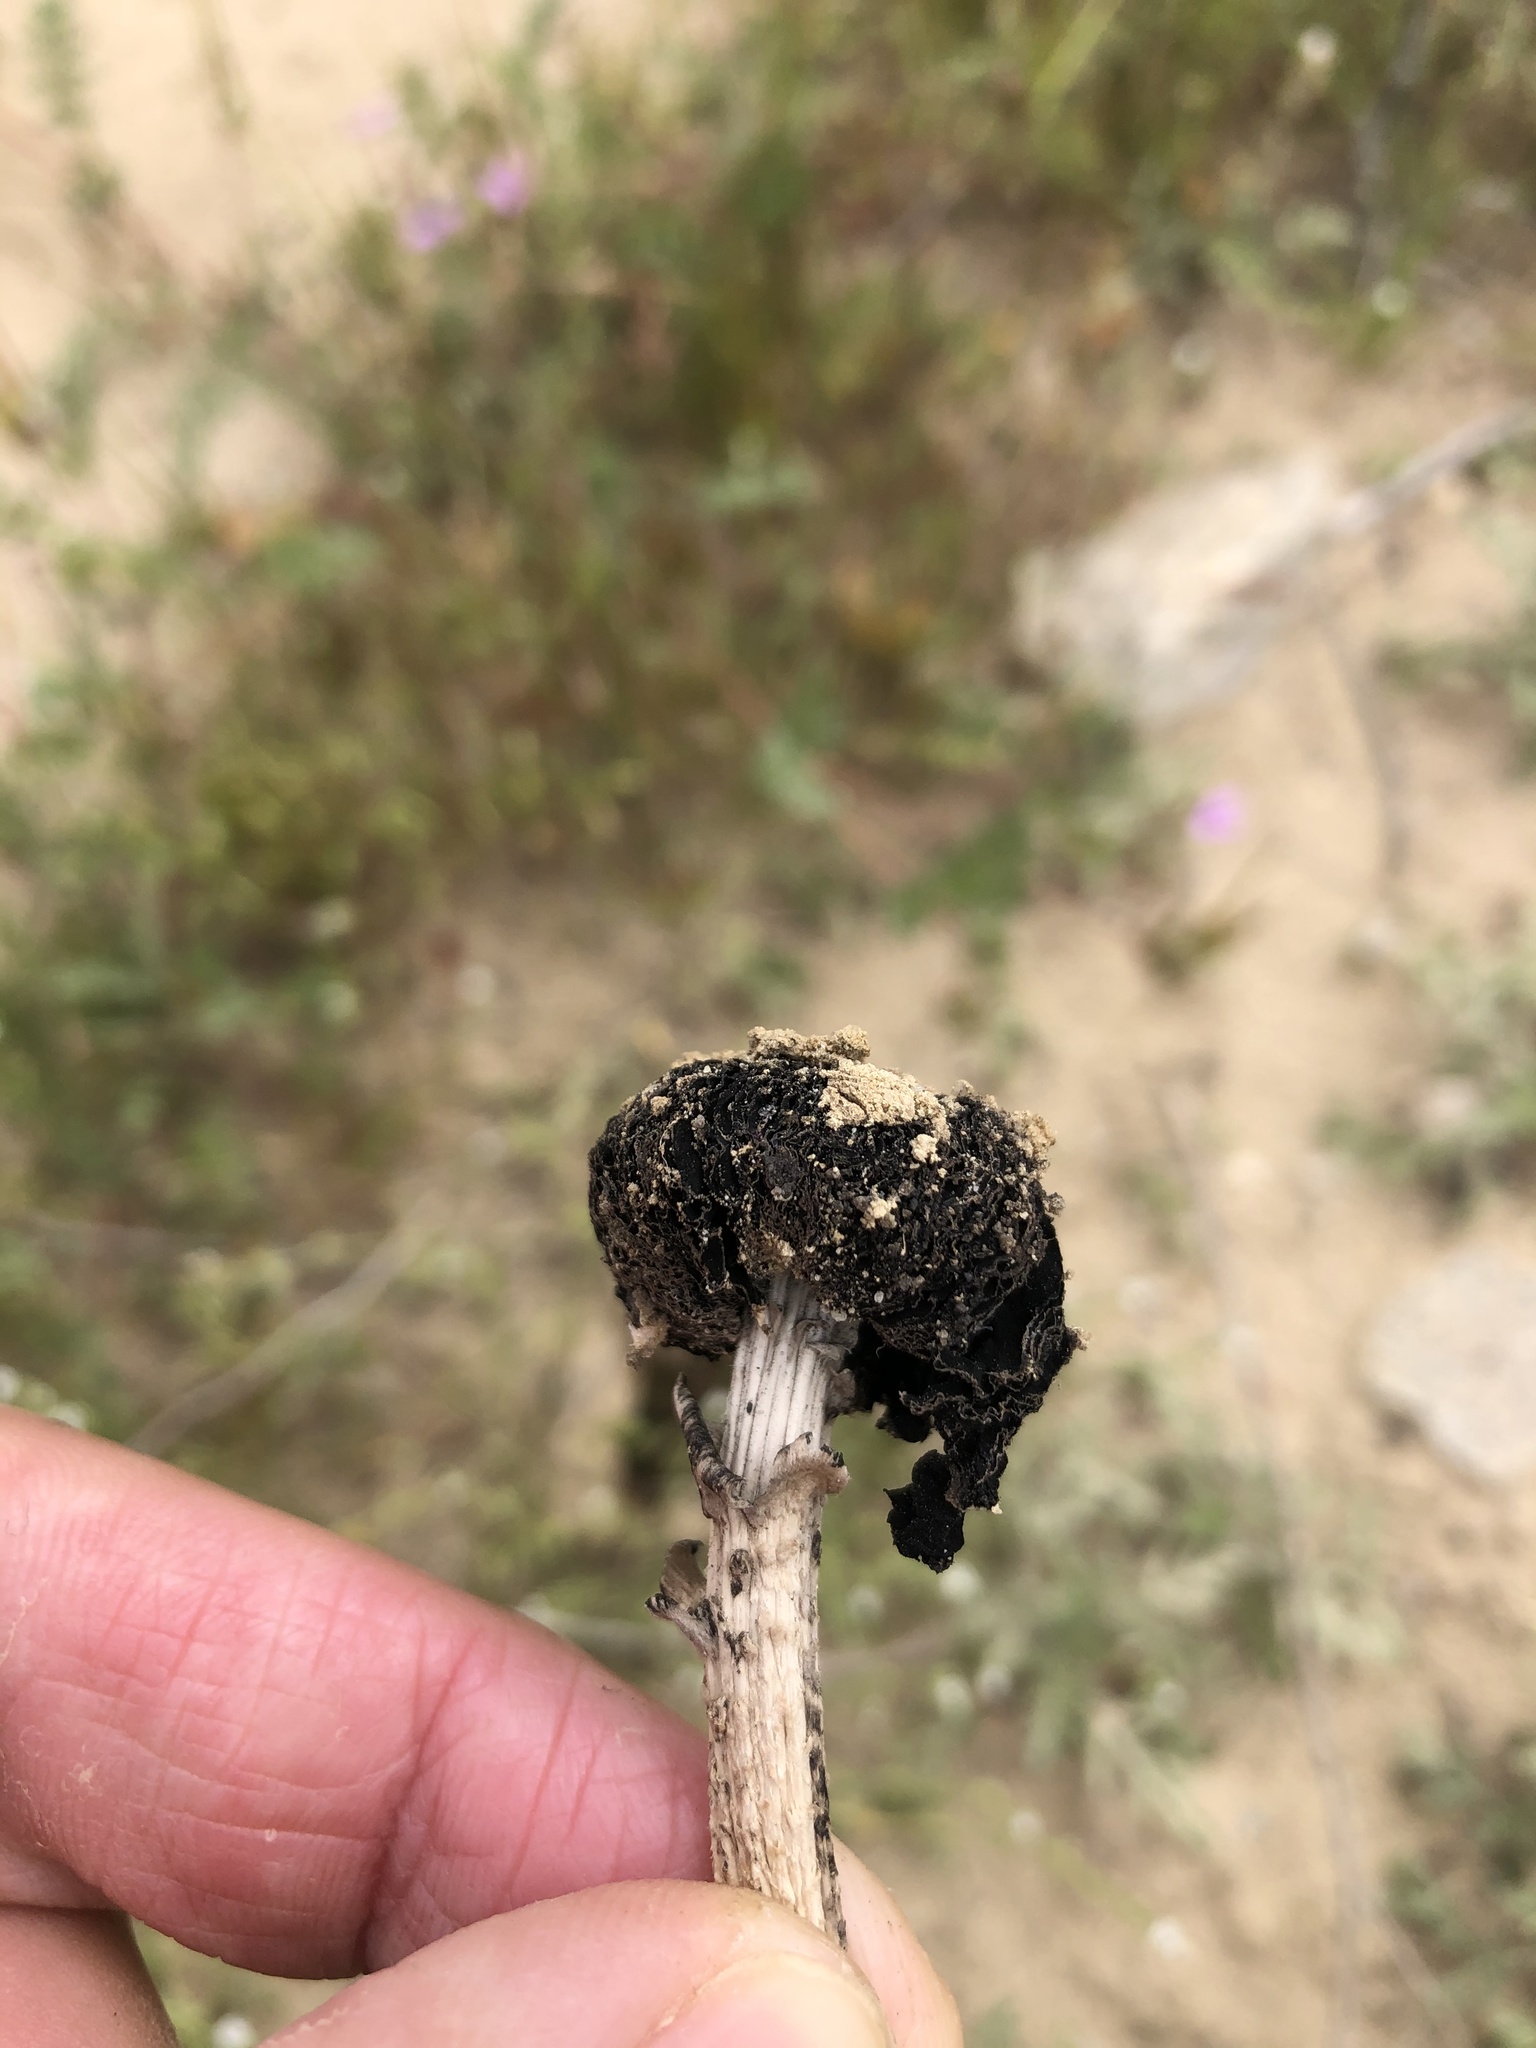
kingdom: Fungi
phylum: Basidiomycota
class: Agaricomycetes
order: Agaricales
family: Agaricaceae
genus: Montagnea
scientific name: Montagnea arenaria
